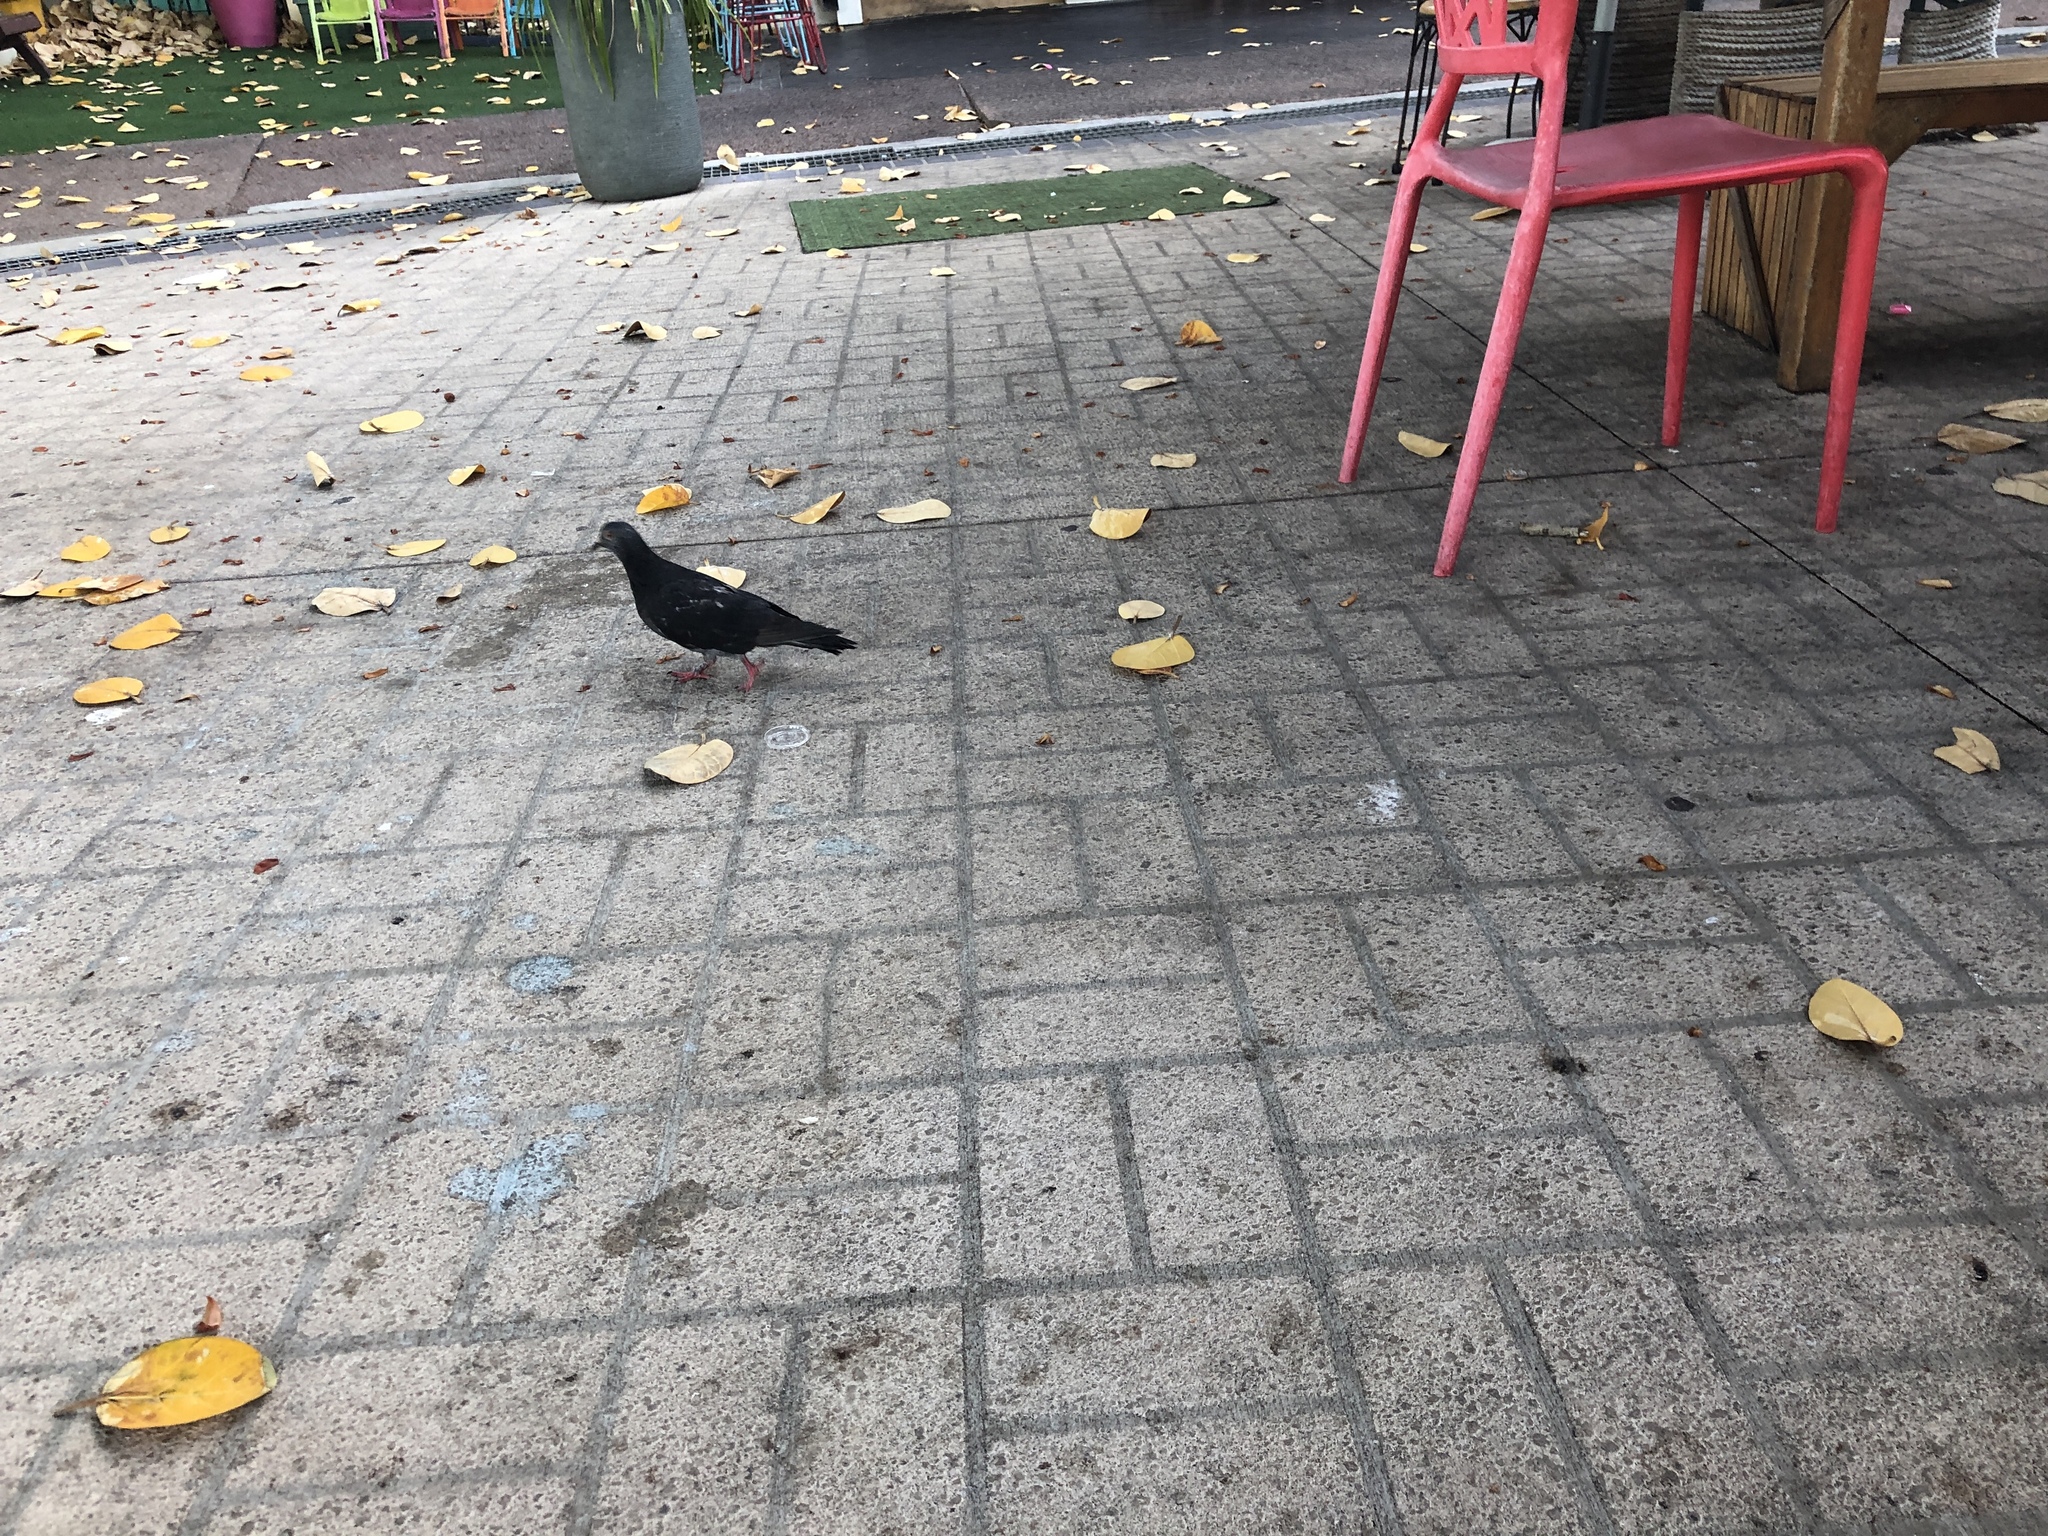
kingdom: Animalia
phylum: Chordata
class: Aves
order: Columbiformes
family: Columbidae
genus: Columba
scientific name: Columba livia
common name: Rock pigeon
